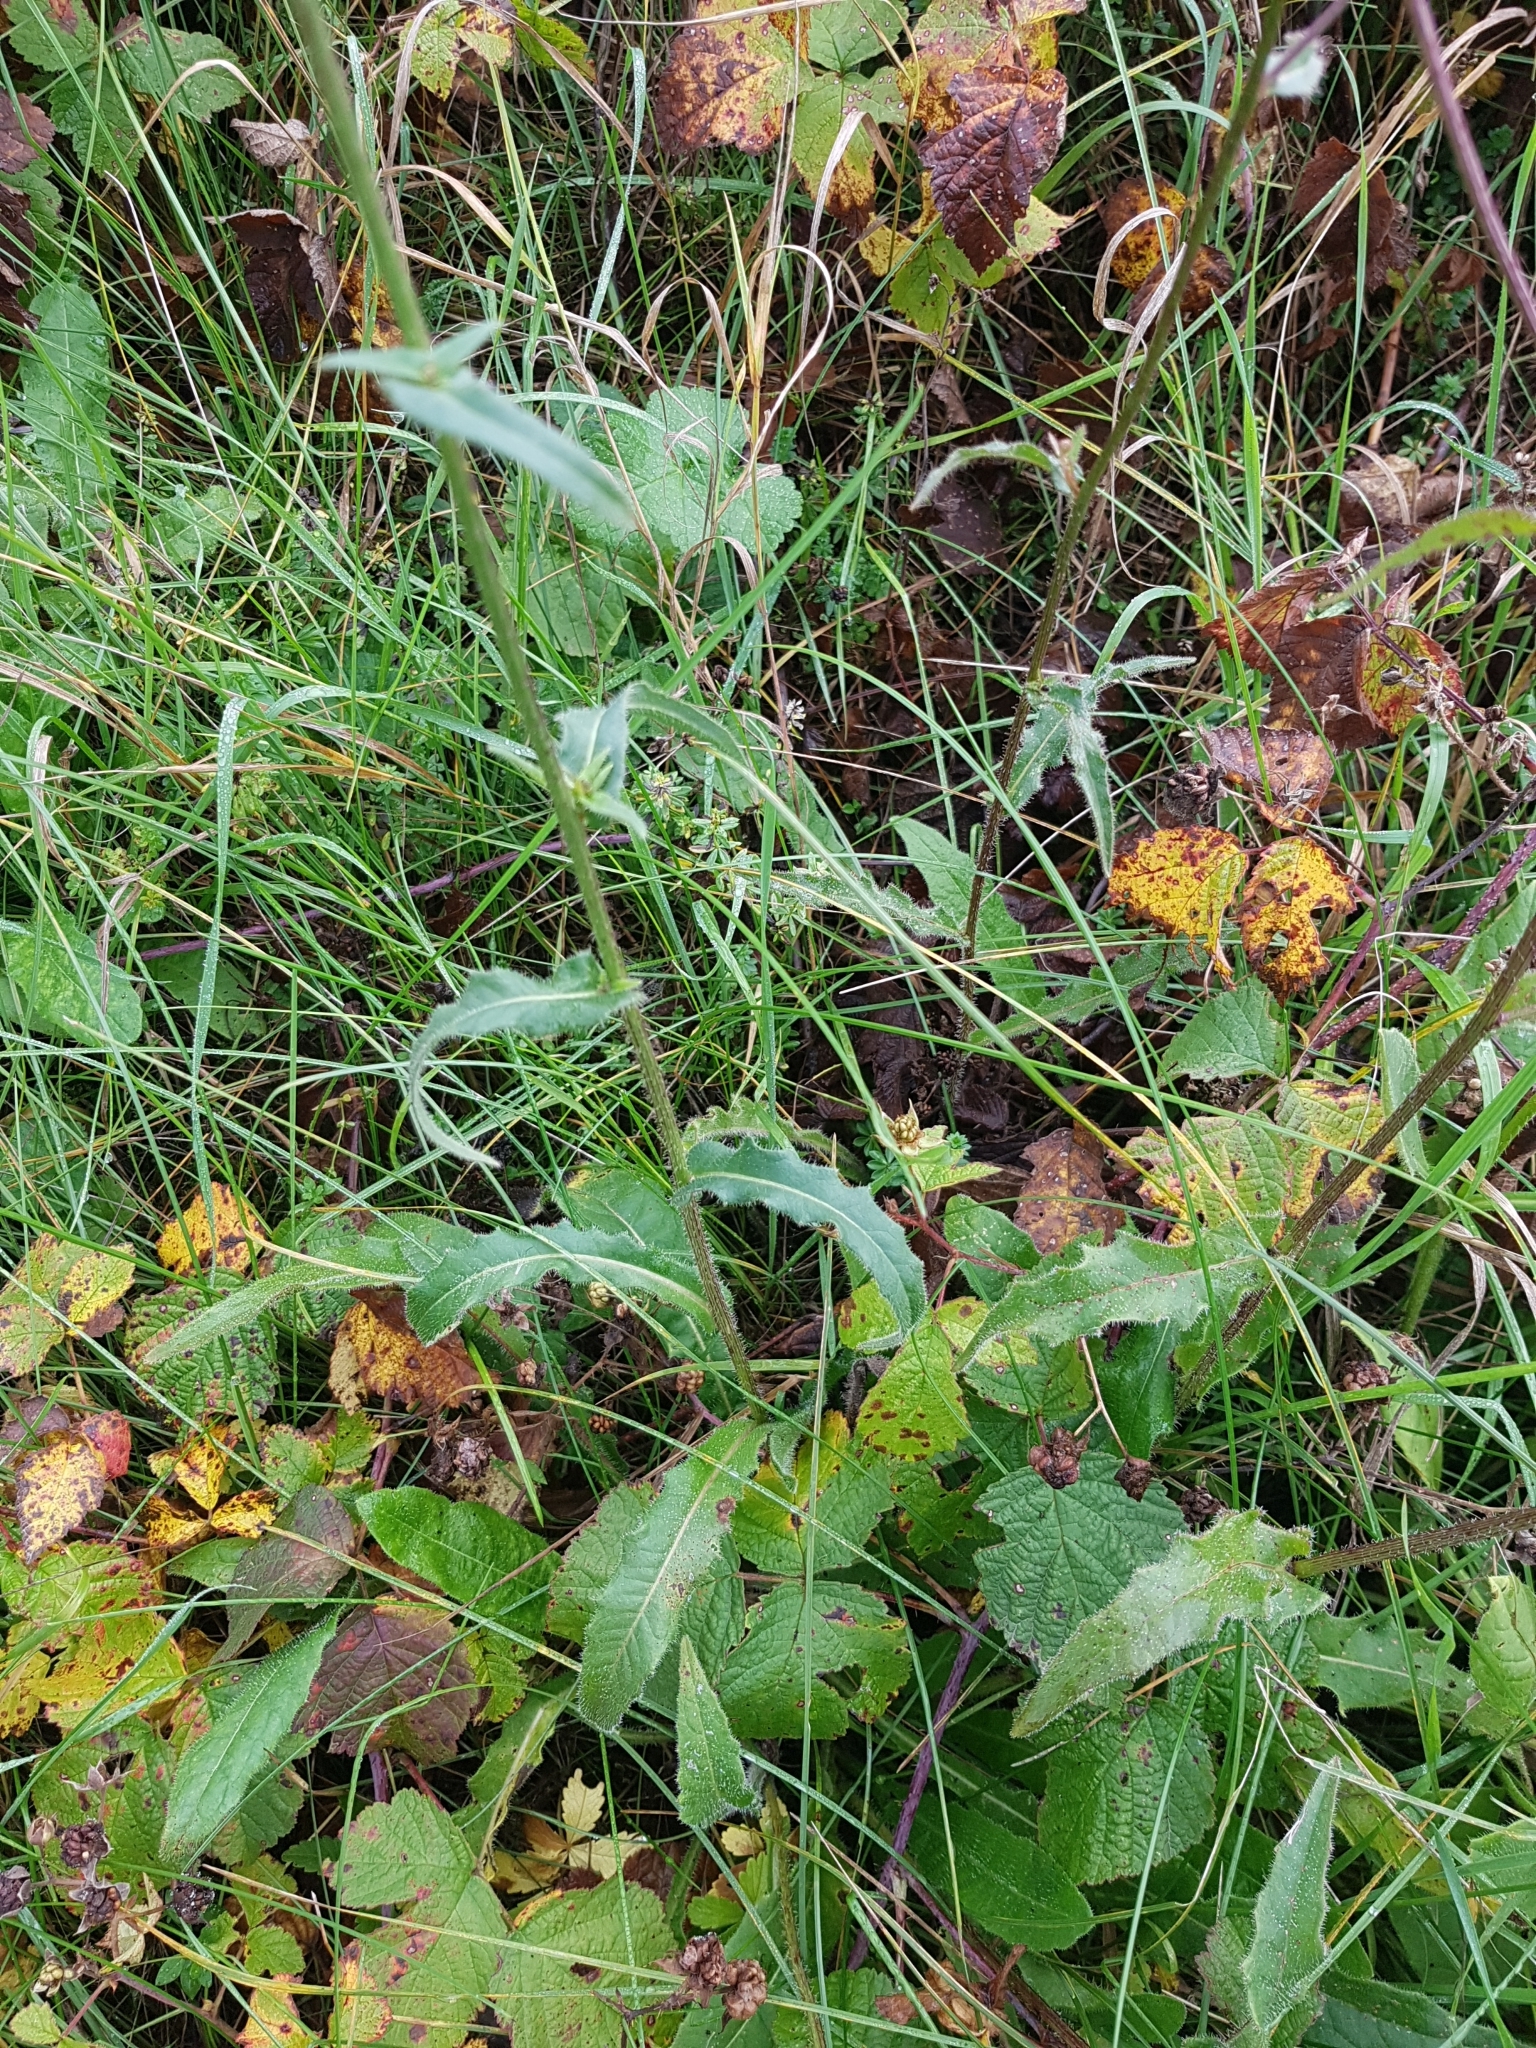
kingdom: Plantae
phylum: Tracheophyta
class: Magnoliopsida
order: Asterales
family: Asteraceae
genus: Picris
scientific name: Picris hieracioides
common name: Hawkweed oxtongue
